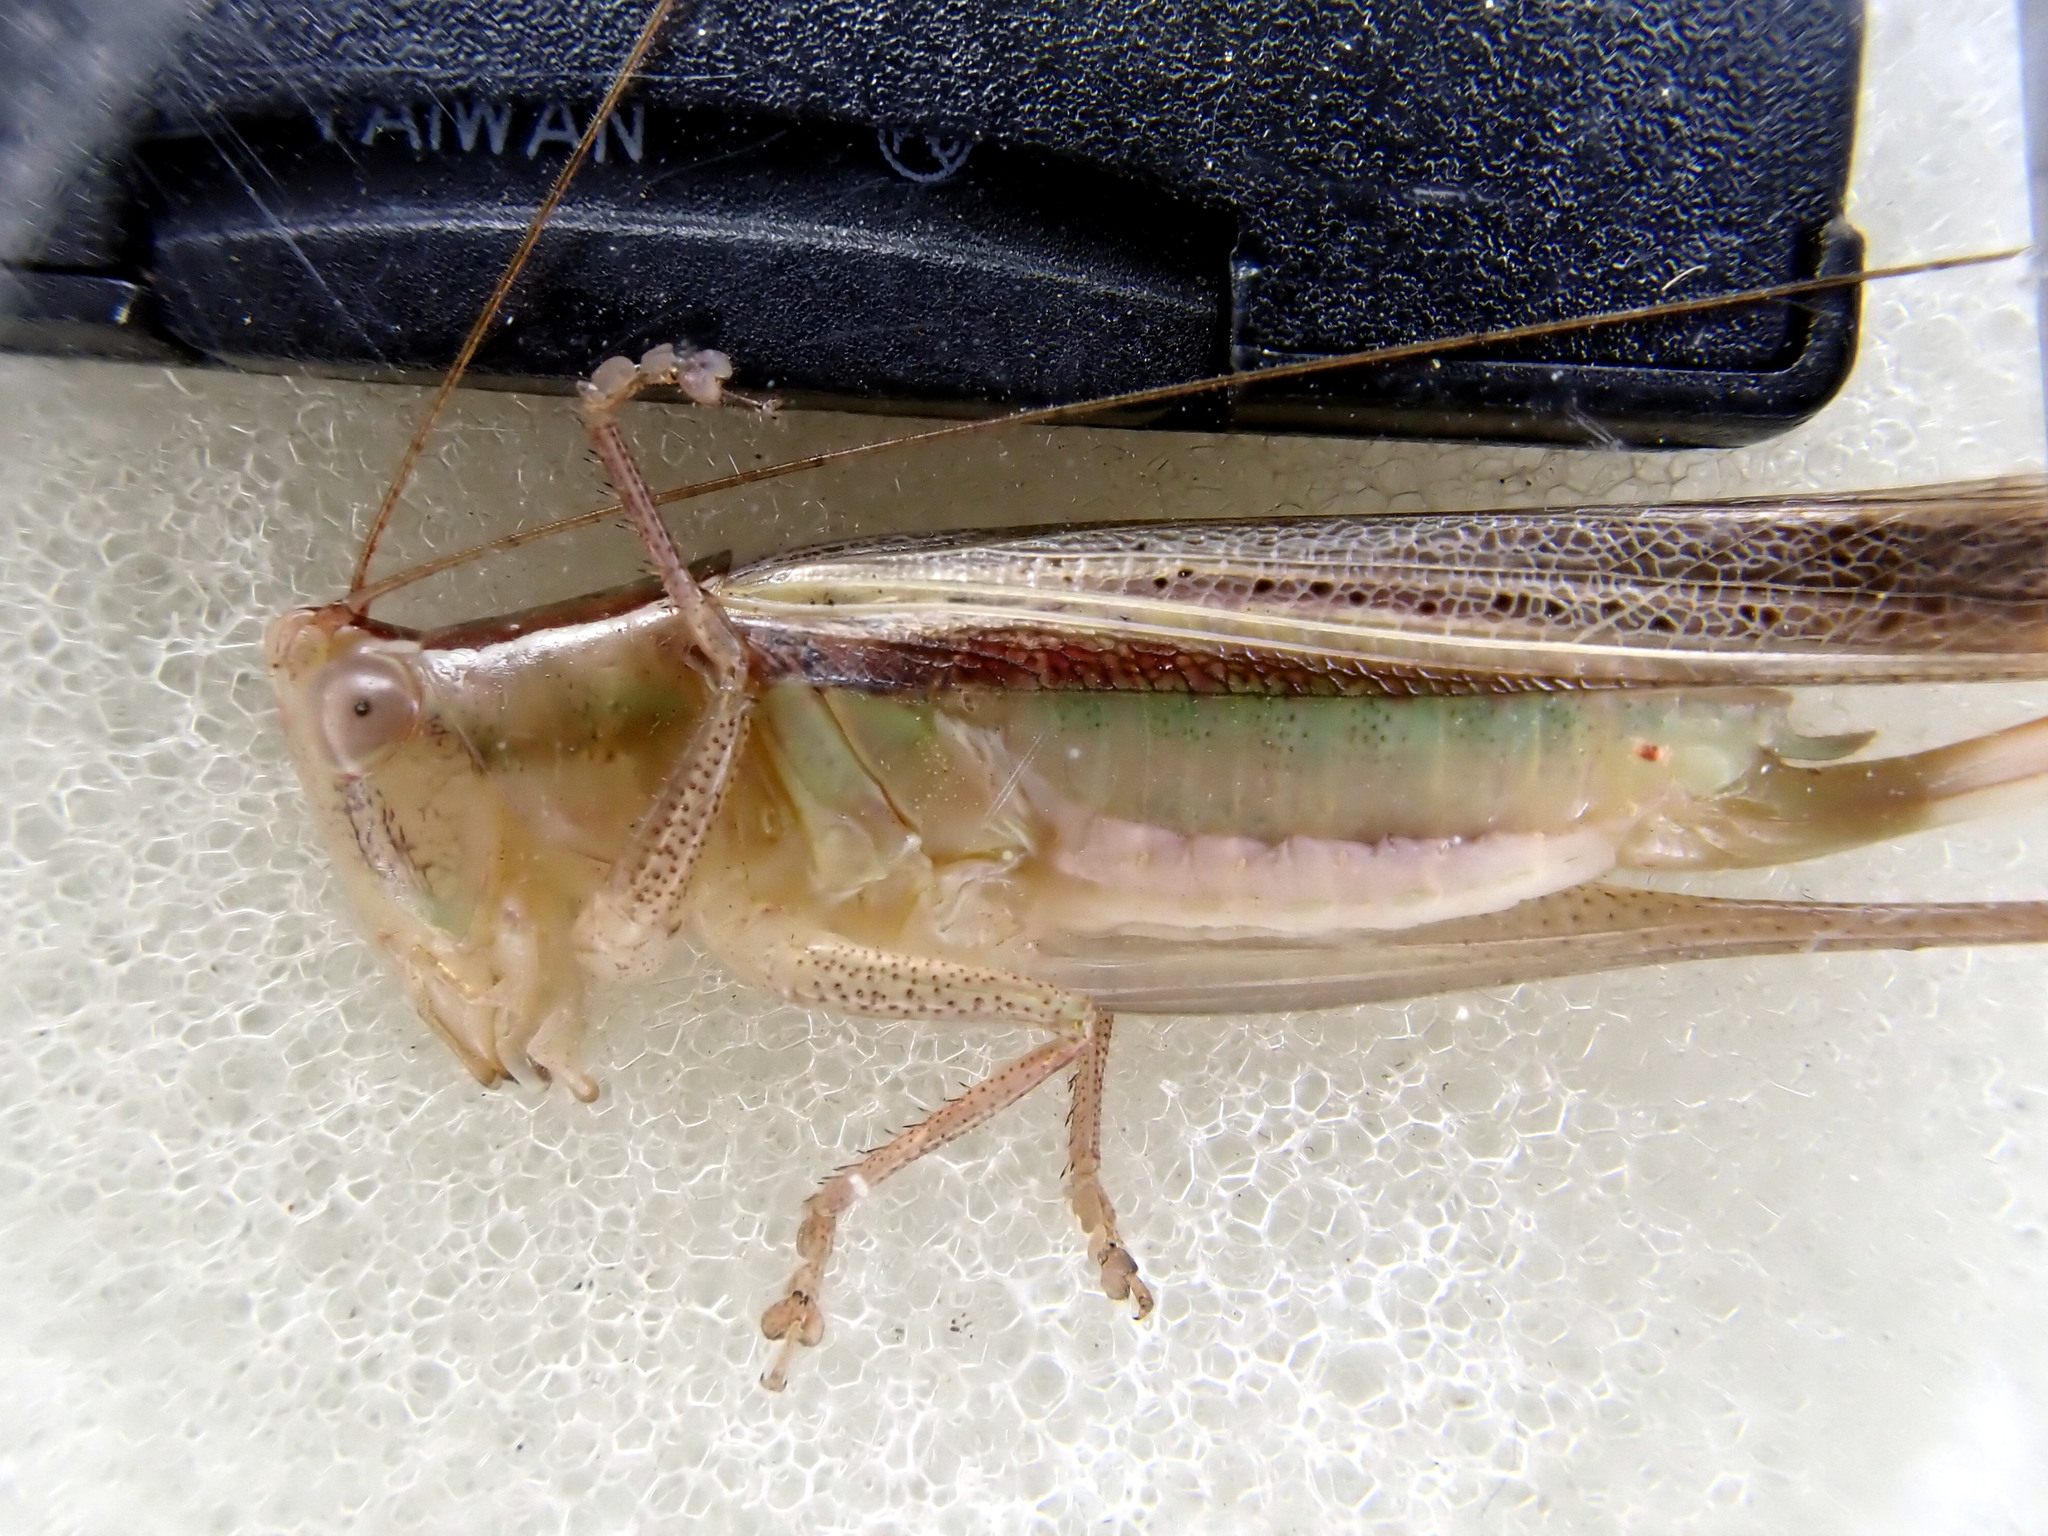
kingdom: Animalia
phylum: Arthropoda
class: Insecta
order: Orthoptera
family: Tettigoniidae
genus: Conocephalus
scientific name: Conocephalus upoluensis
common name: Upolu meadow katydid
